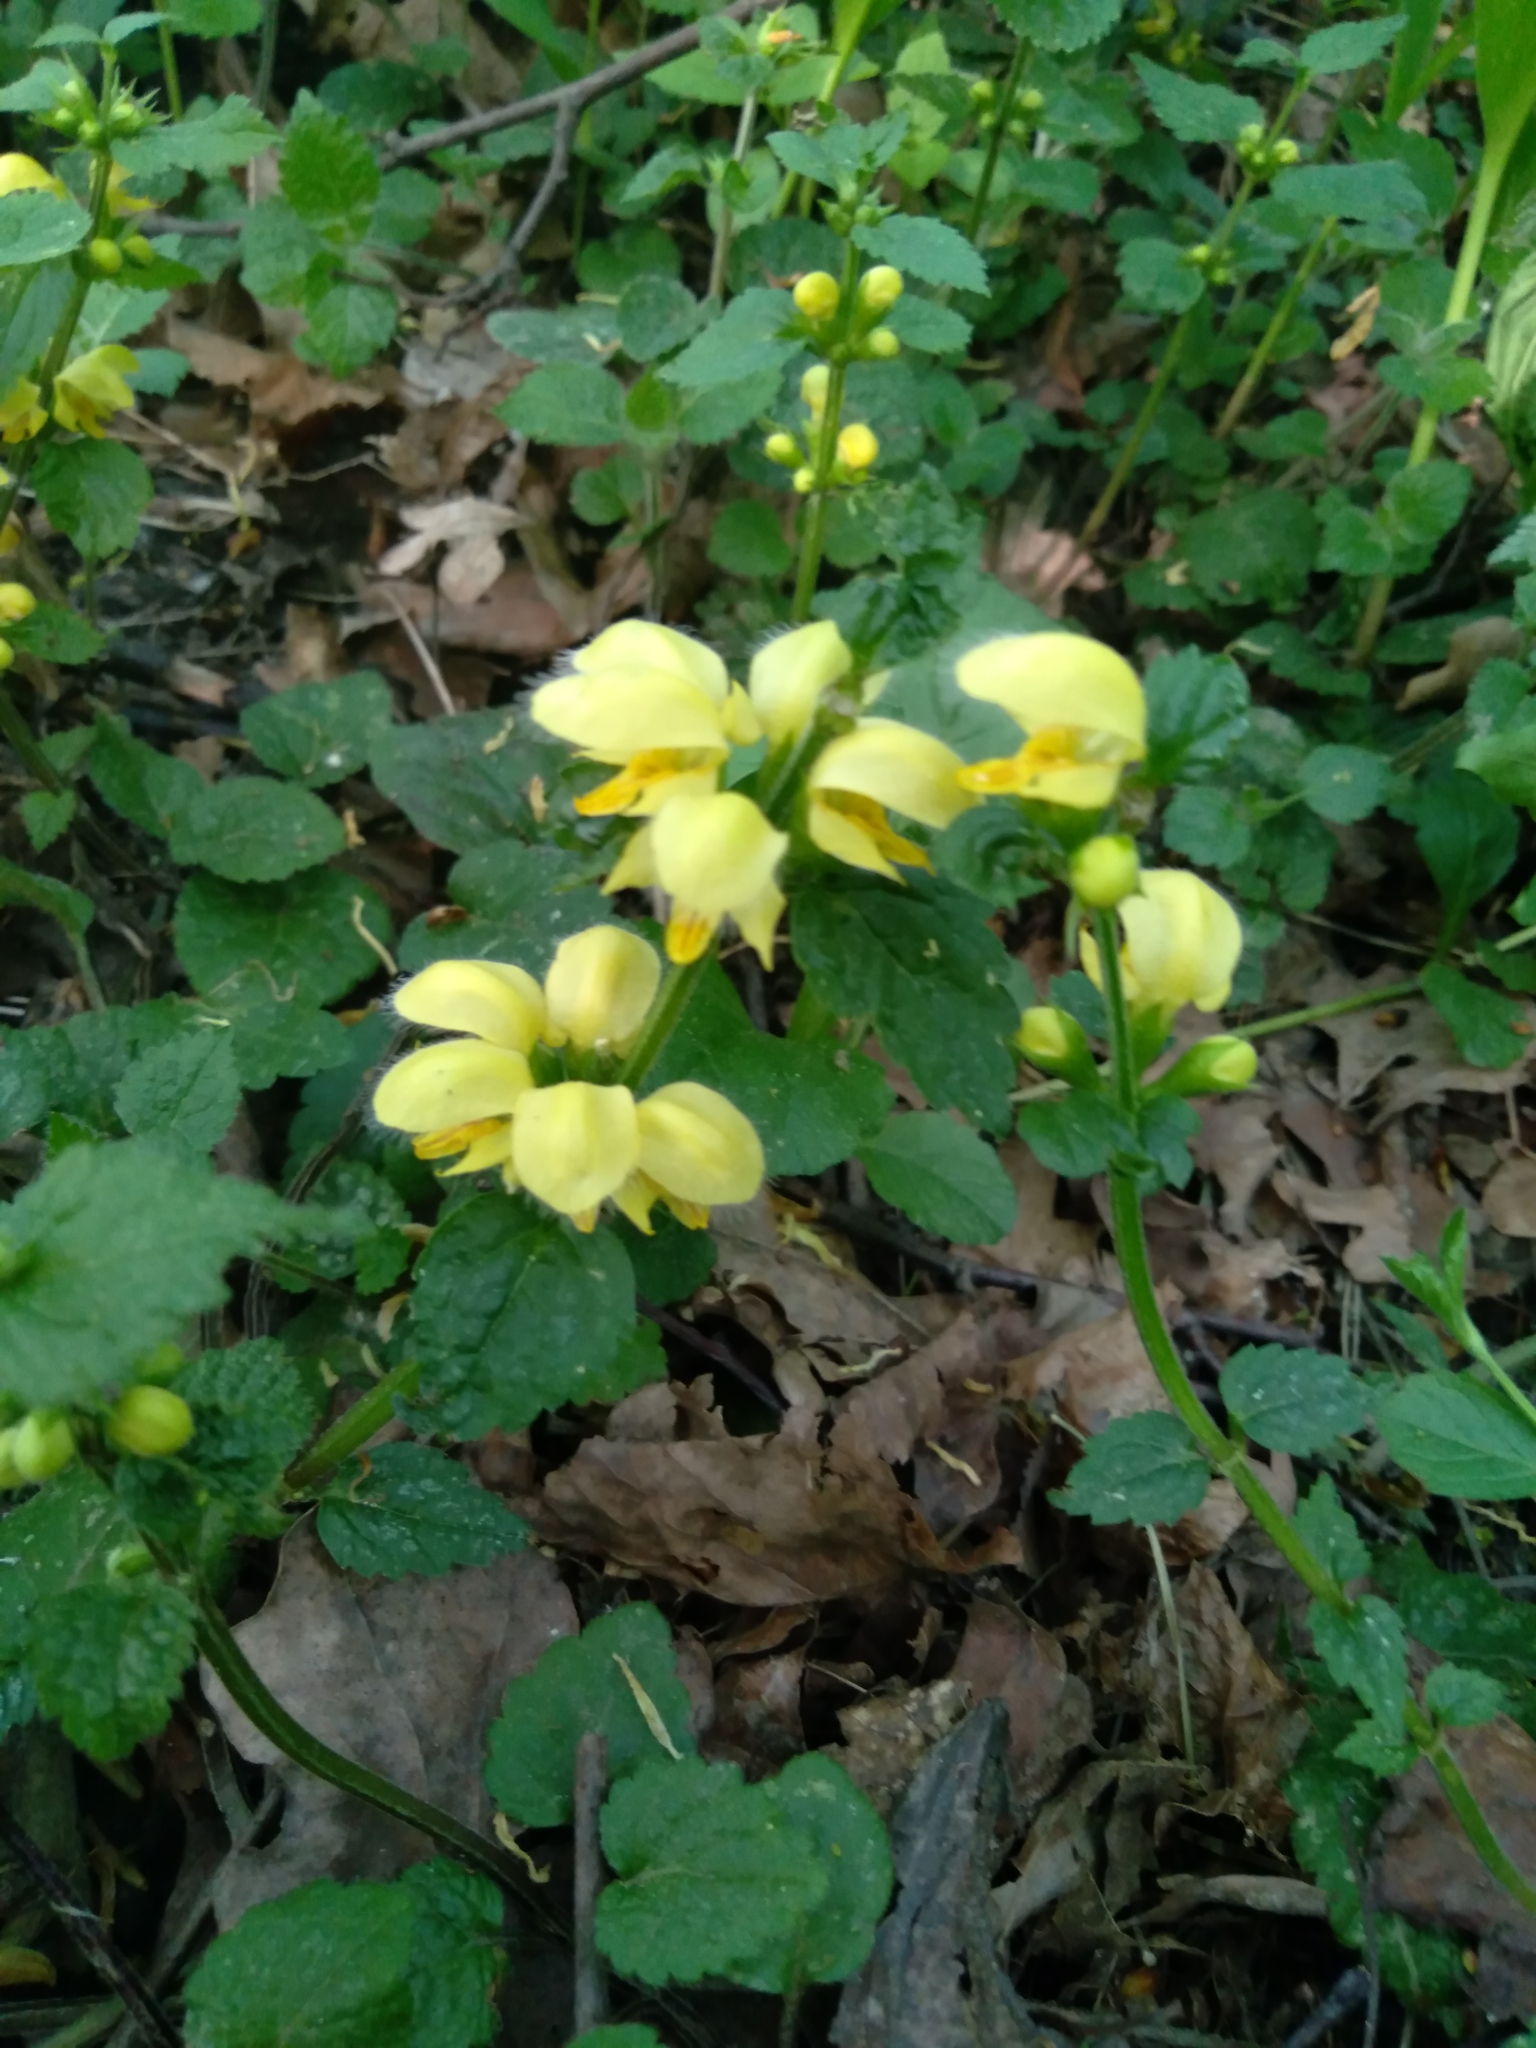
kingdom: Plantae
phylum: Tracheophyta
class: Magnoliopsida
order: Lamiales
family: Lamiaceae
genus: Lamium
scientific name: Lamium galeobdolon
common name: Yellow archangel
